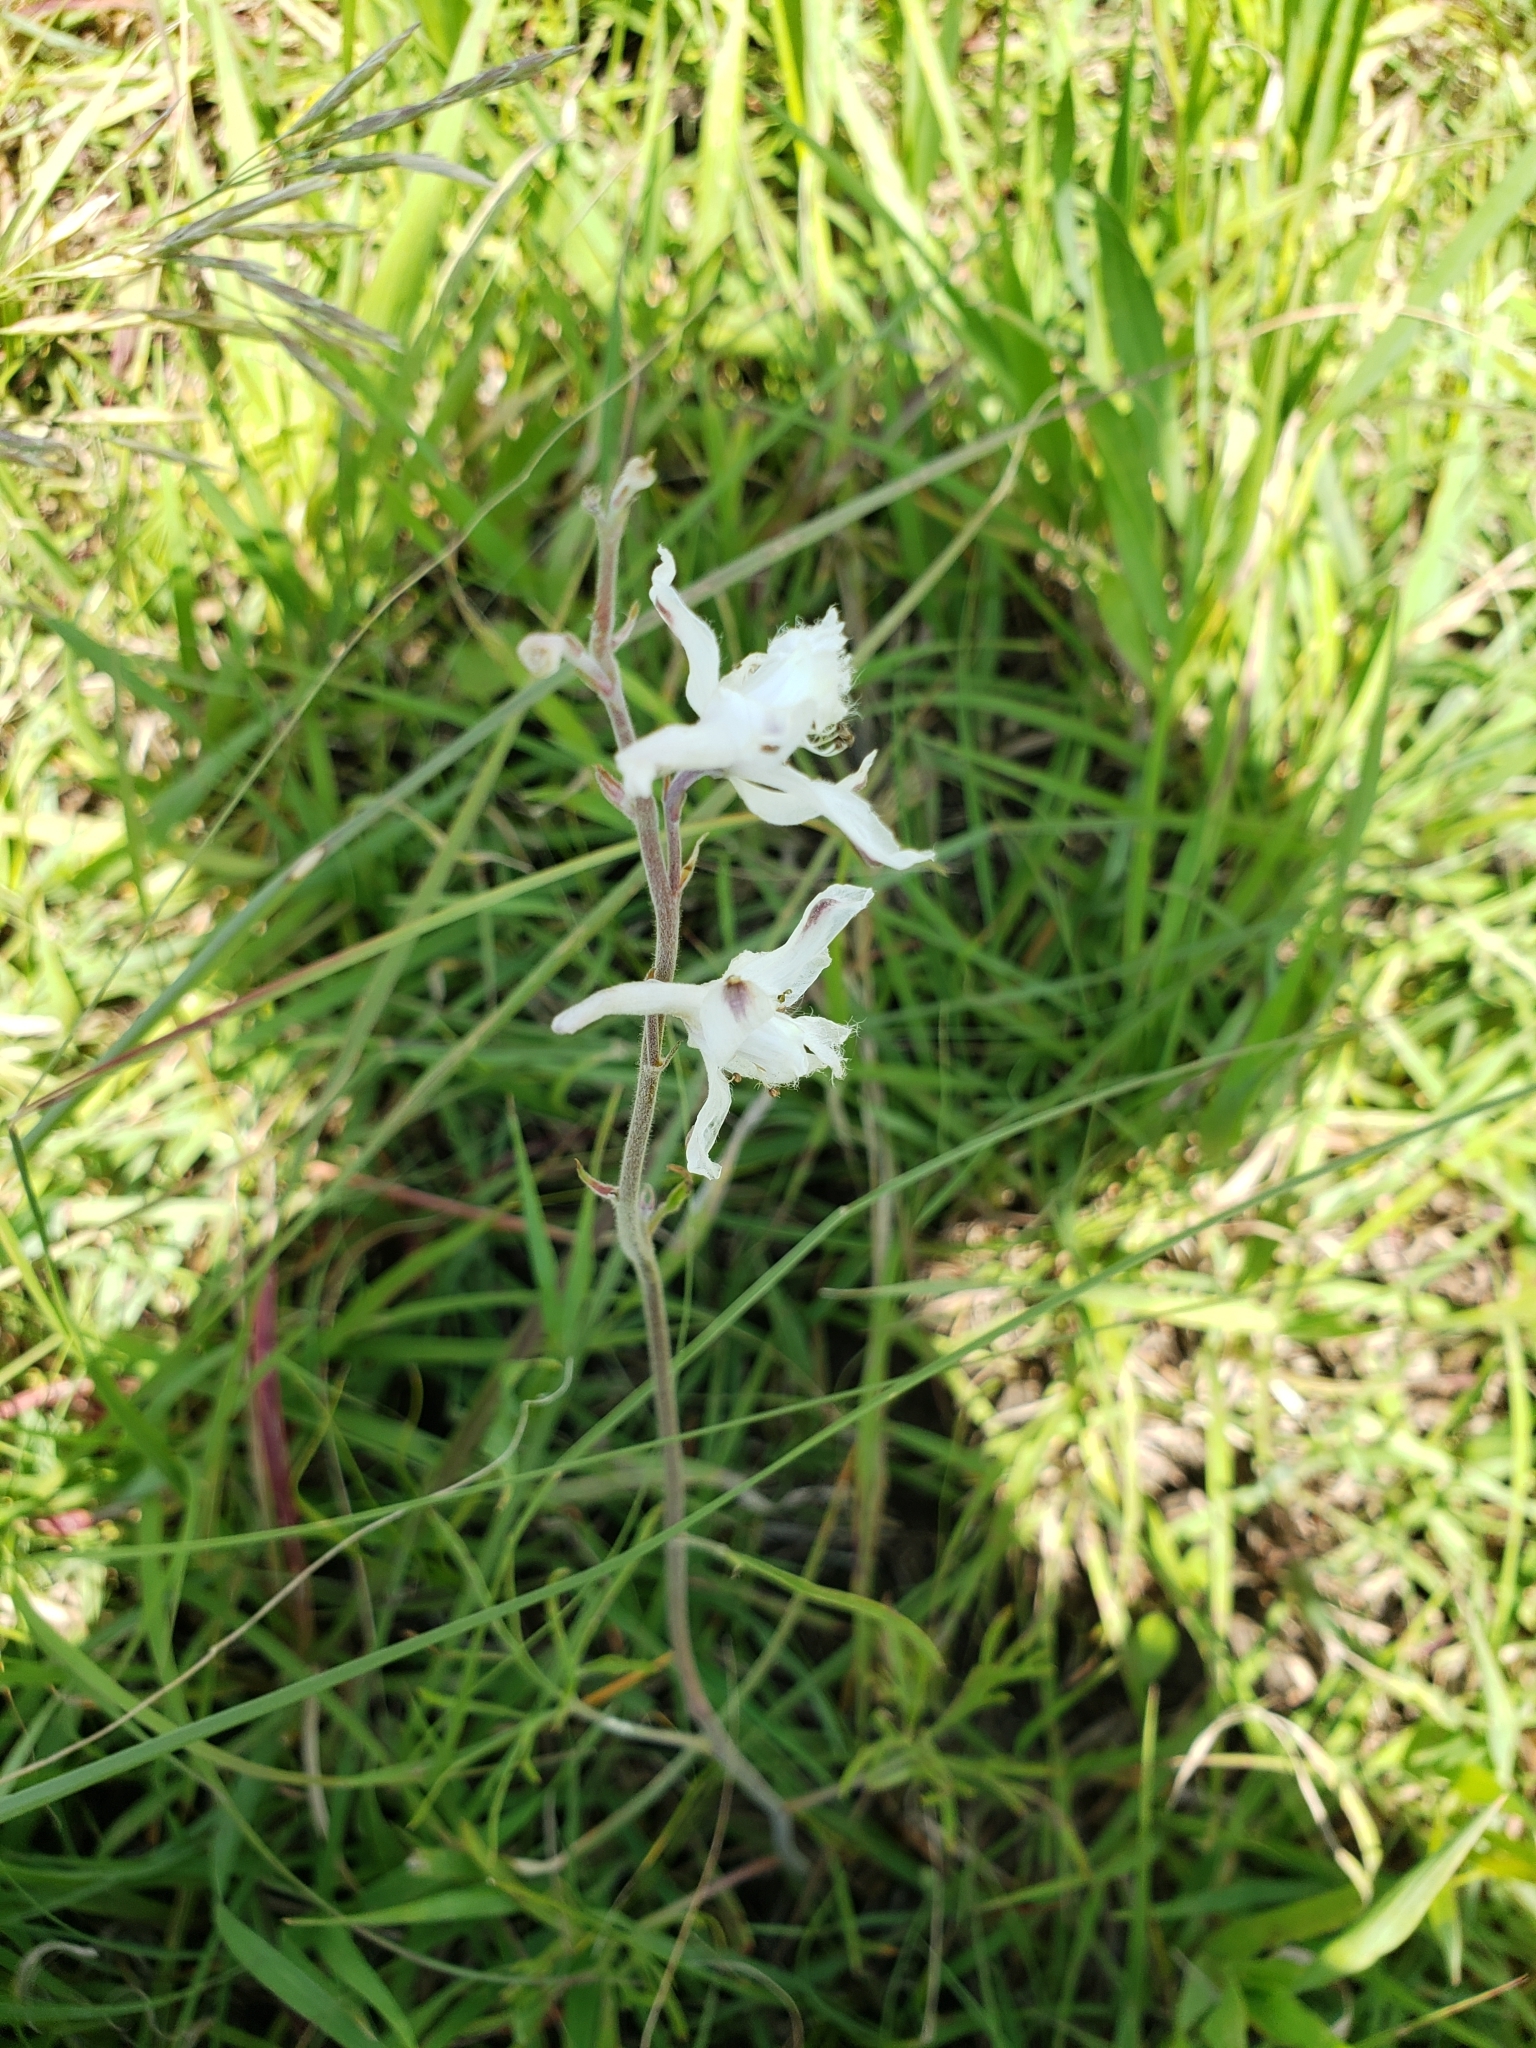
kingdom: Plantae
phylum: Tracheophyta
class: Magnoliopsida
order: Ranunculales
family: Ranunculaceae
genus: Delphinium
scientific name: Delphinium carolinianum
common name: Carolina larkspur
